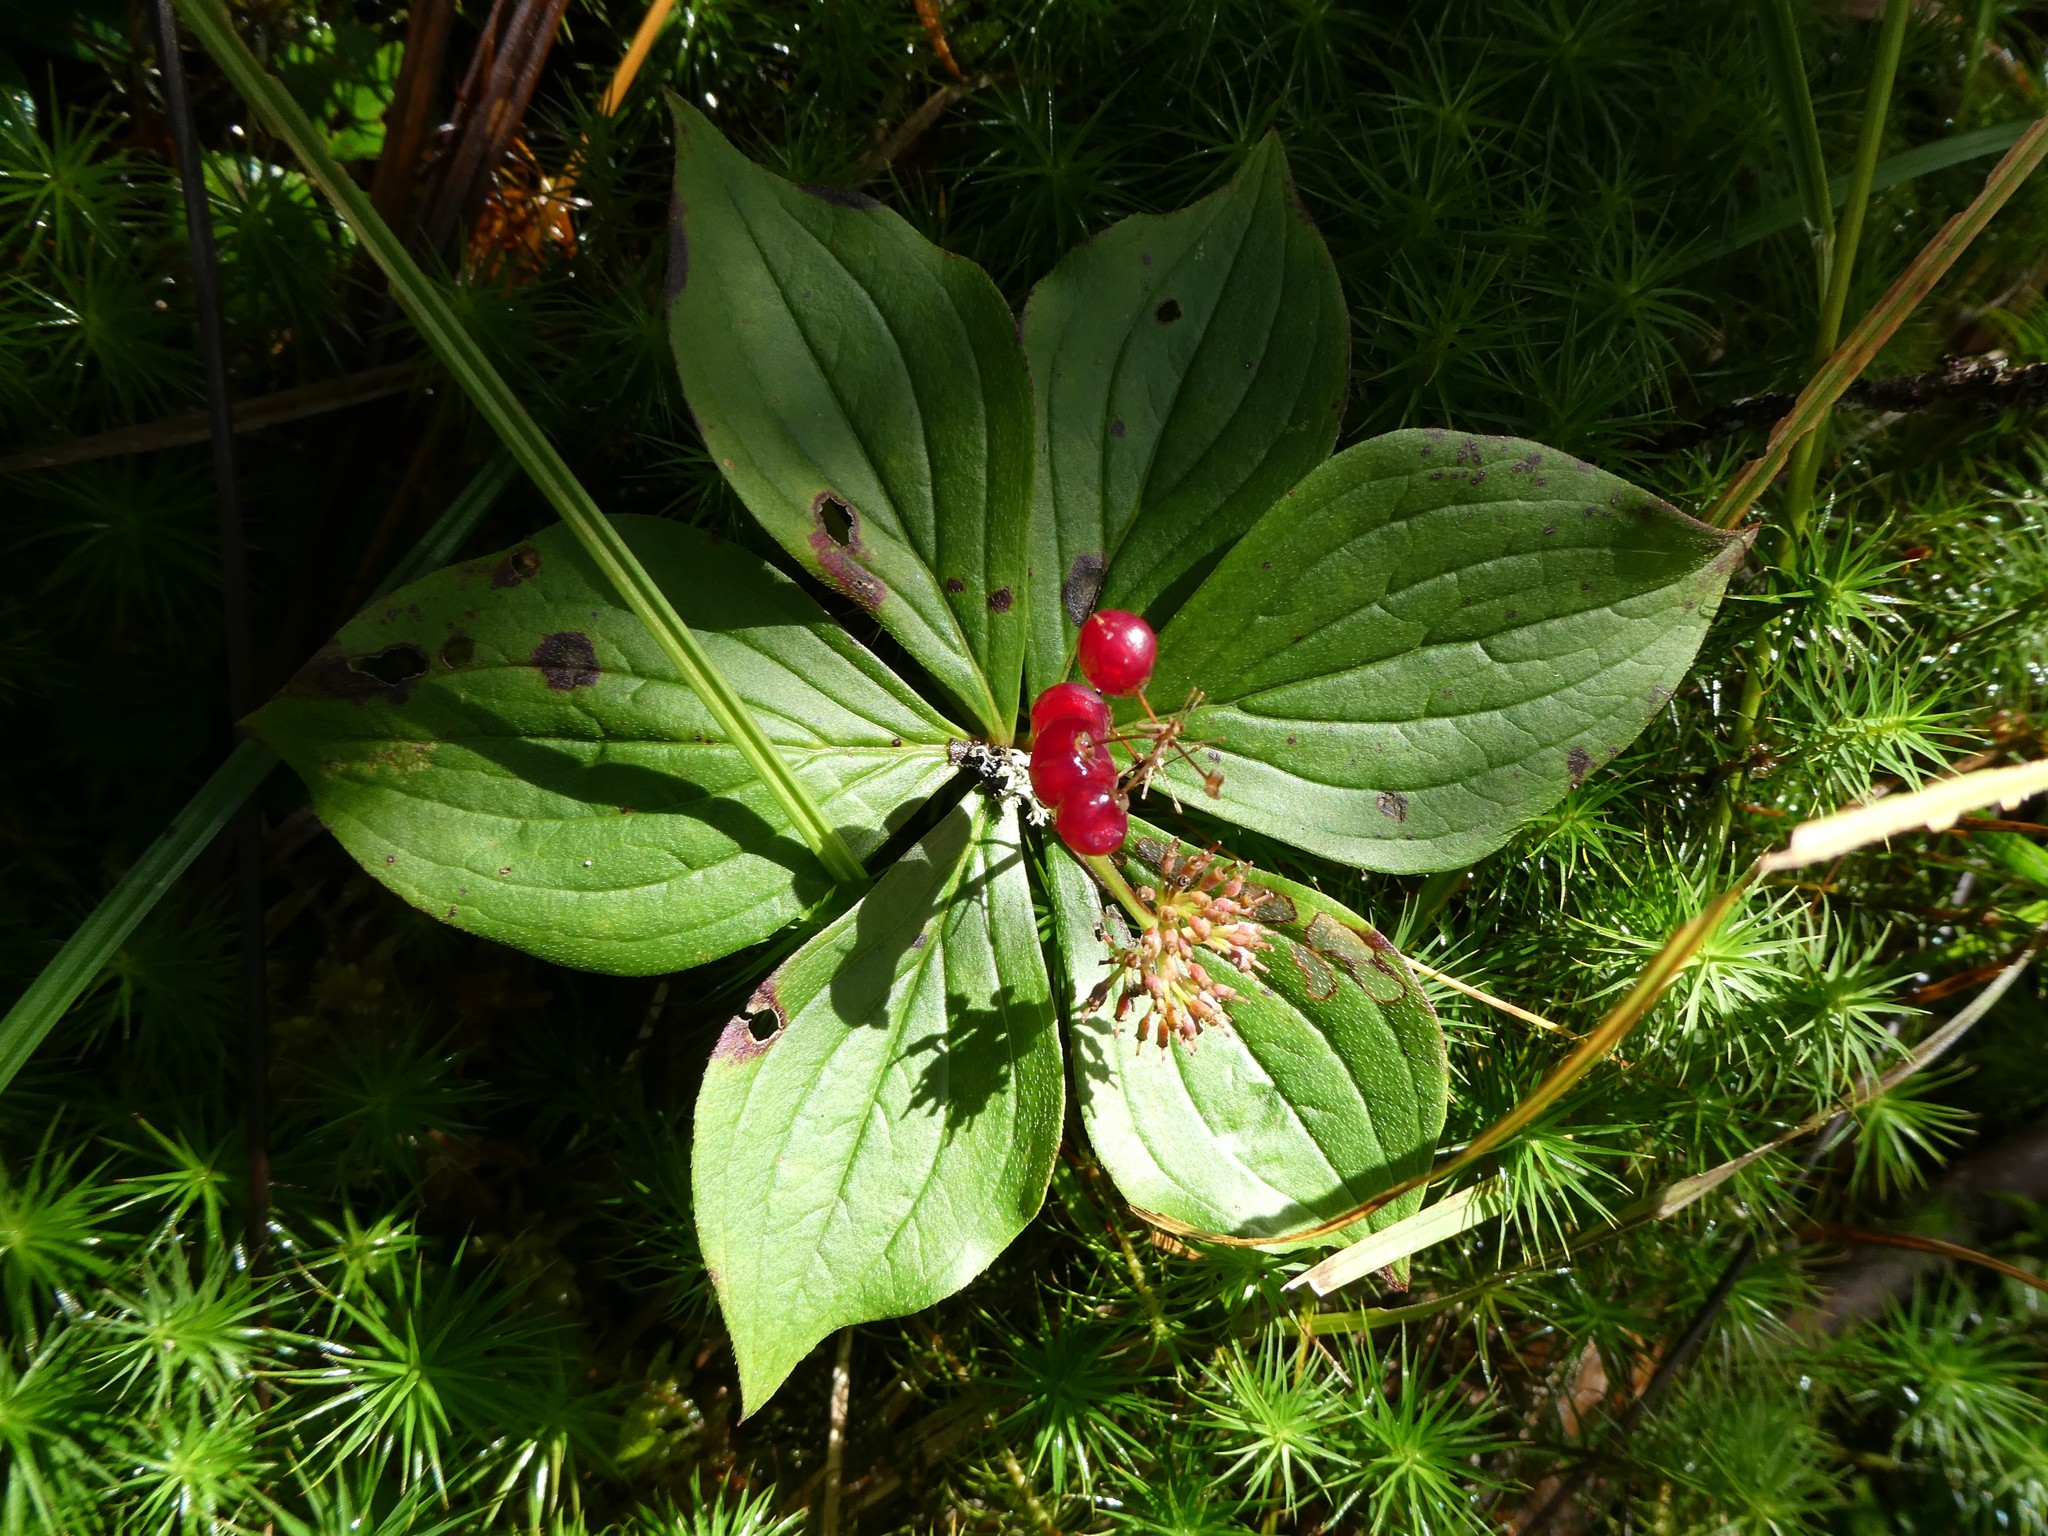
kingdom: Plantae
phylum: Tracheophyta
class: Magnoliopsida
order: Cornales
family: Cornaceae
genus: Cornus
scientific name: Cornus canadensis
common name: Creeping dogwood
